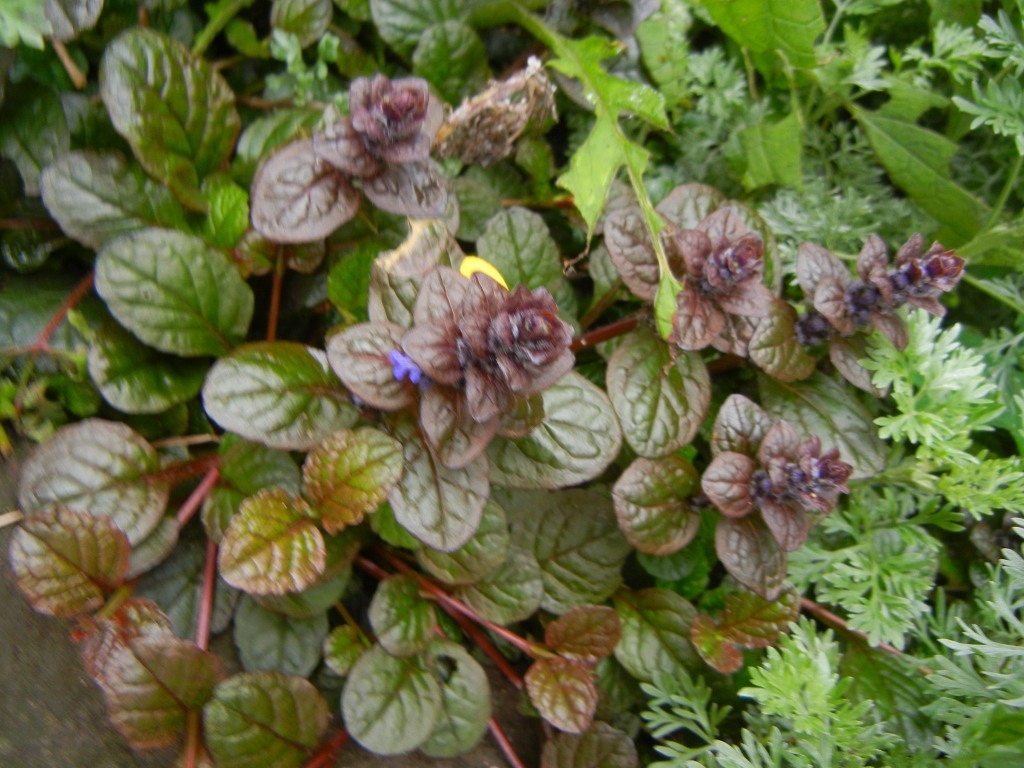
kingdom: Plantae
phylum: Tracheophyta
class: Magnoliopsida
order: Lamiales
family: Lamiaceae
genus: Ajuga
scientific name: Ajuga reptans
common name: Bugle
